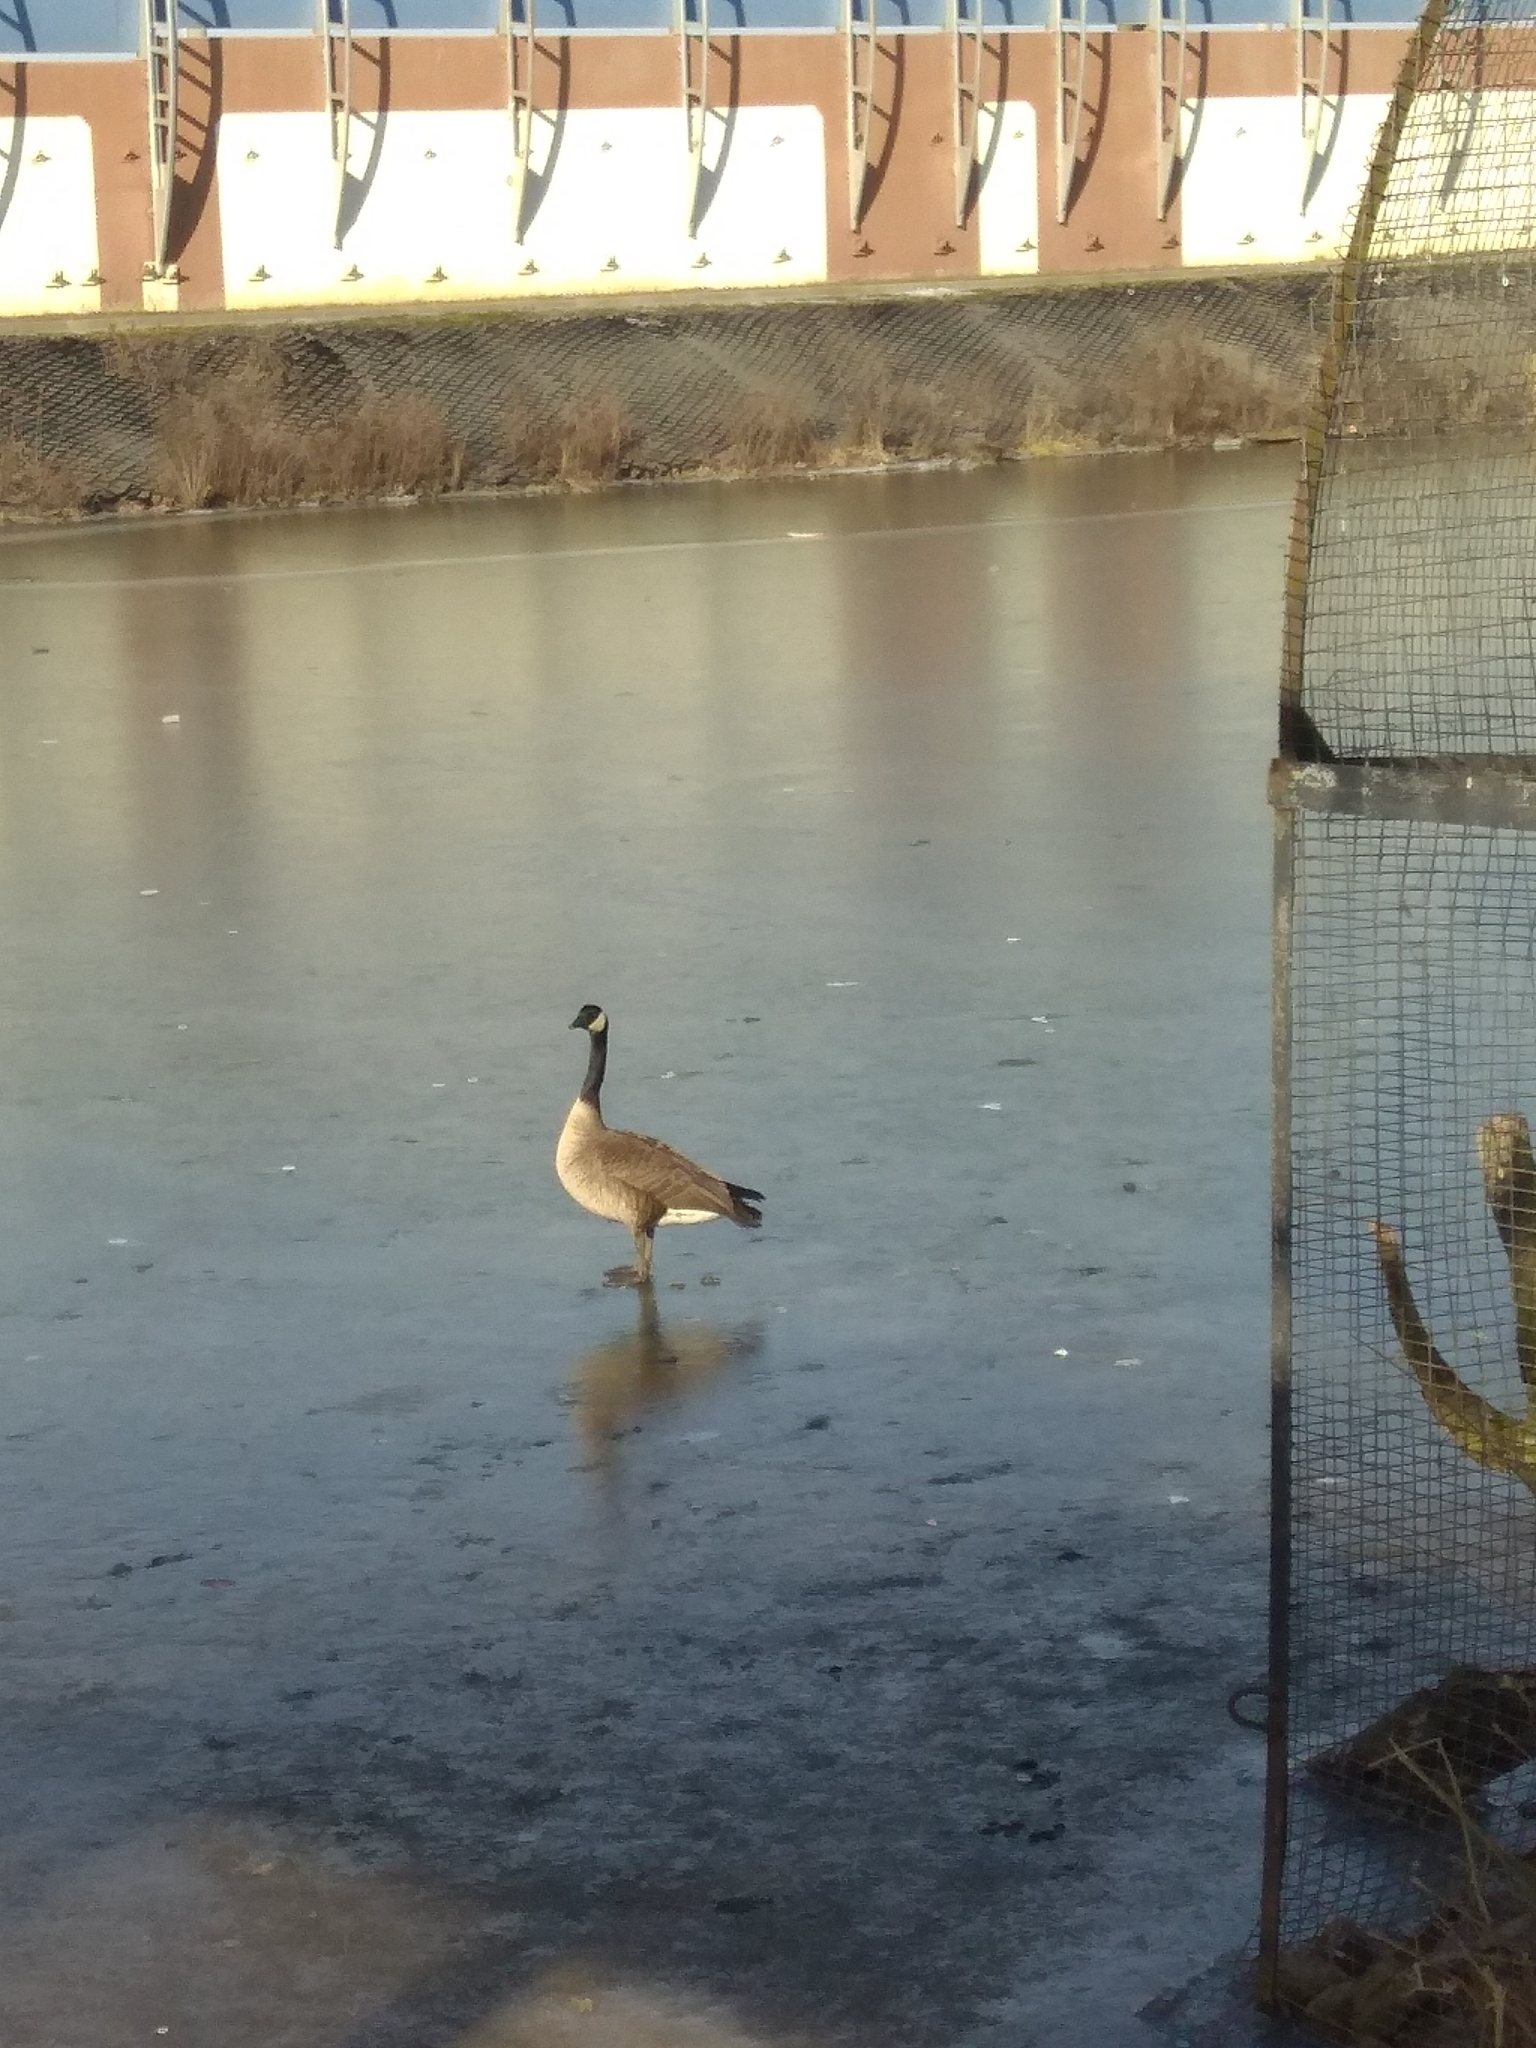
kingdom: Animalia
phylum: Chordata
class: Aves
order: Anseriformes
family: Anatidae
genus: Branta
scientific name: Branta canadensis
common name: Canada goose
